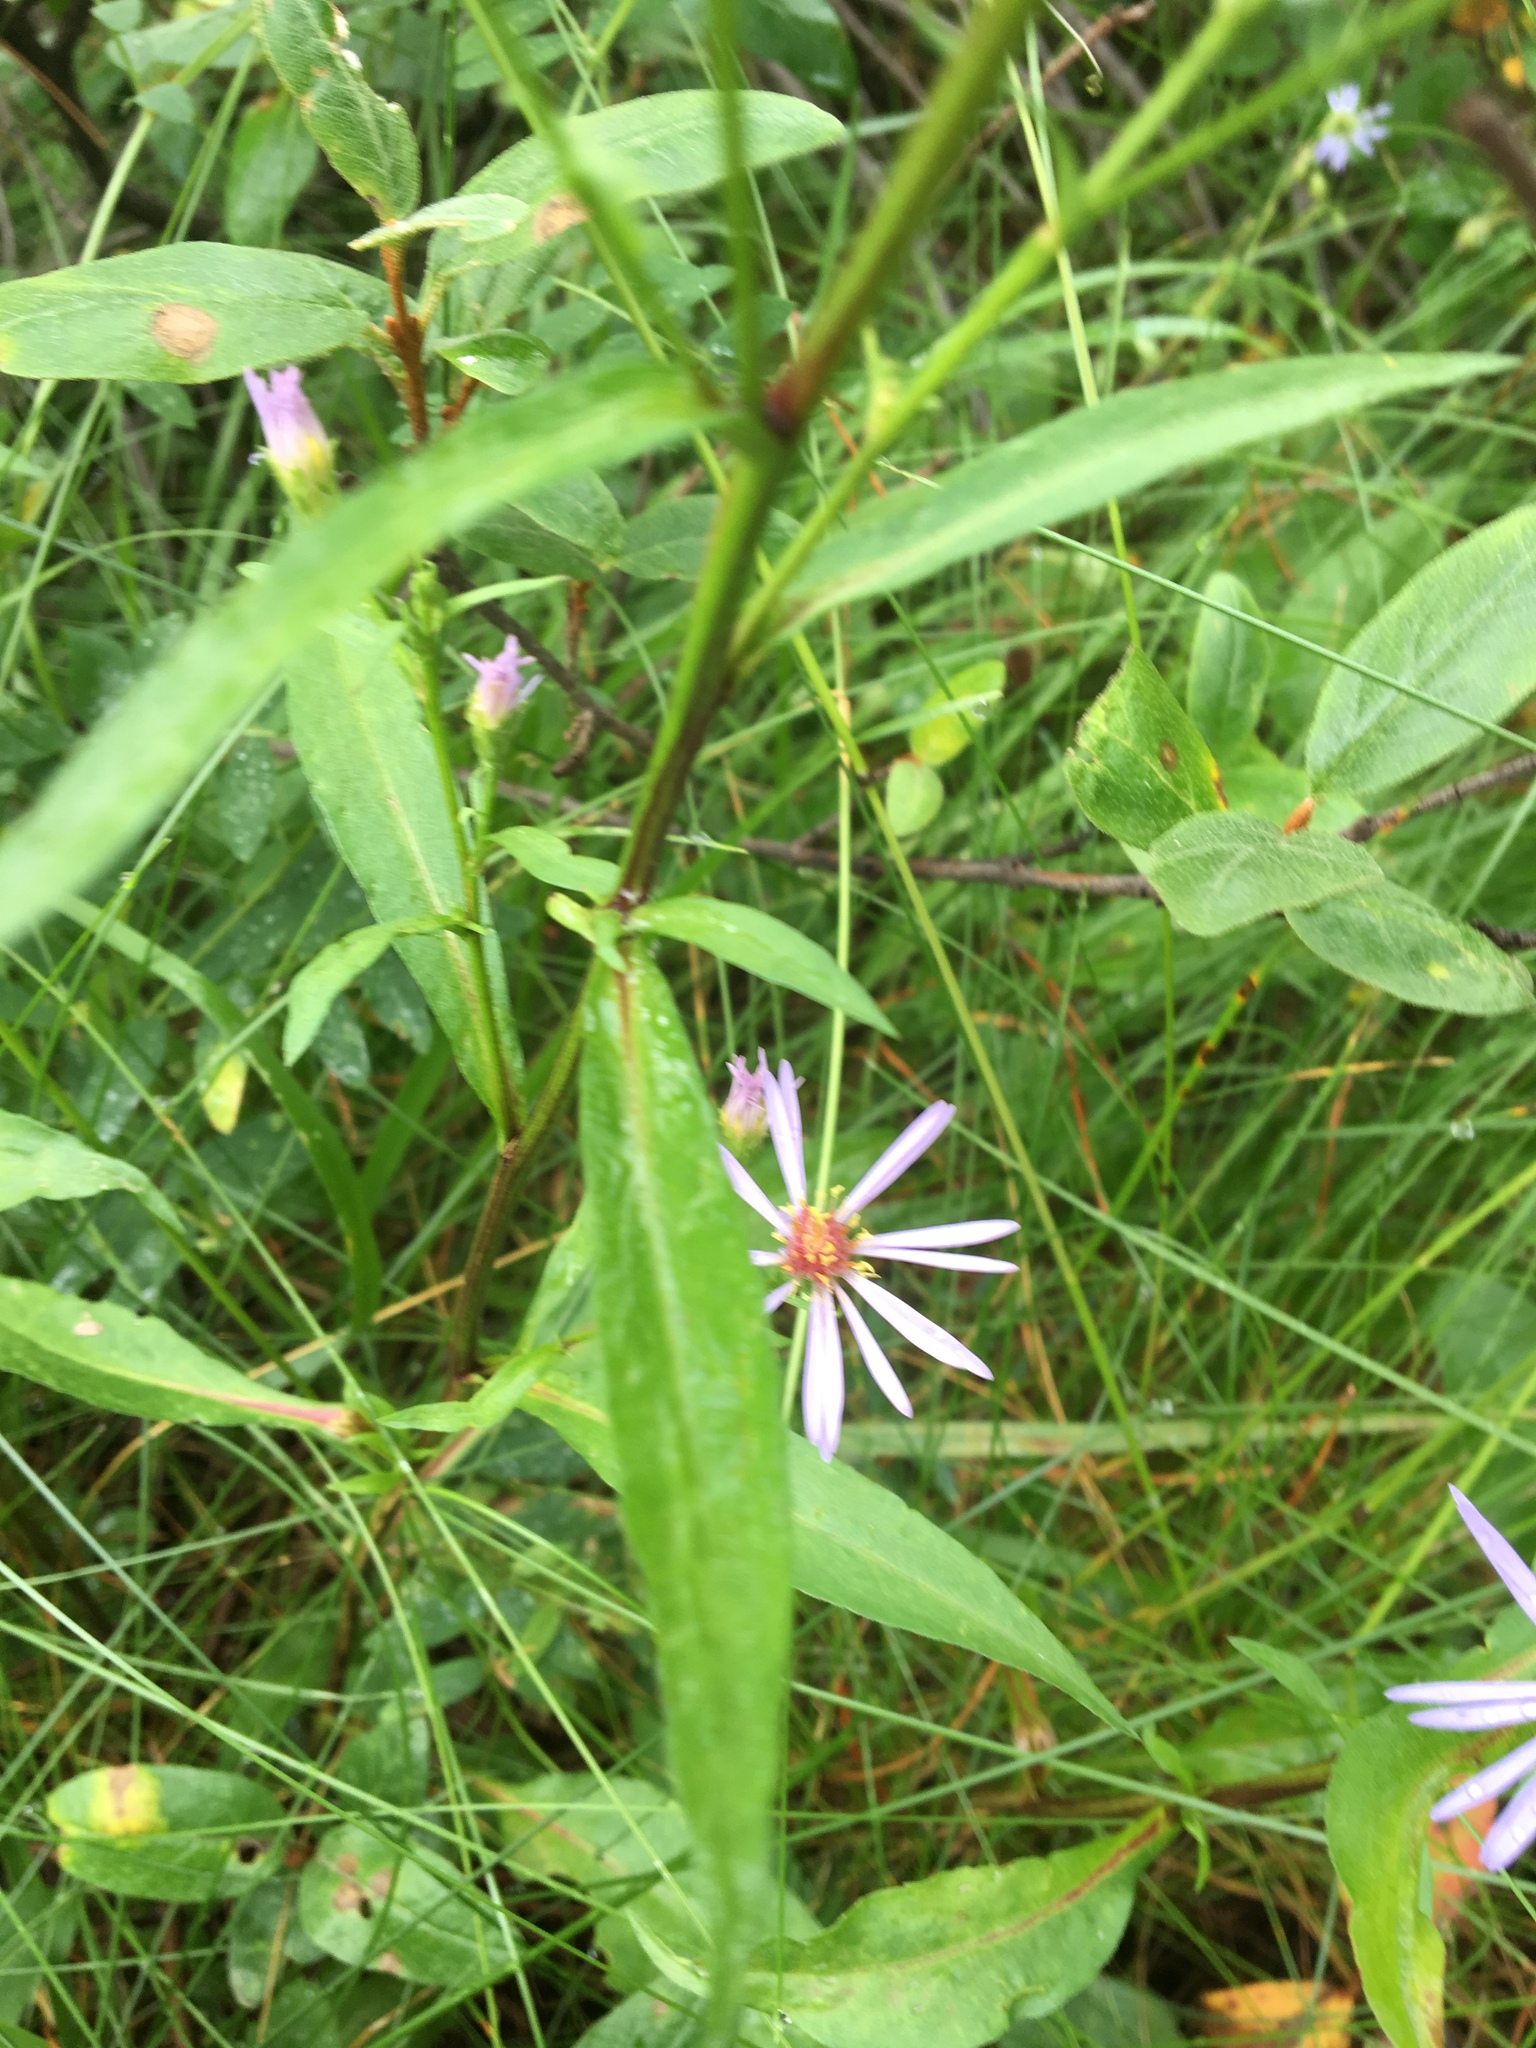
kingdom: Plantae
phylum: Tracheophyta
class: Magnoliopsida
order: Asterales
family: Asteraceae
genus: Symphyotrichum
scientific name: Symphyotrichum ciliolatum
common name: Fringed blue aster
